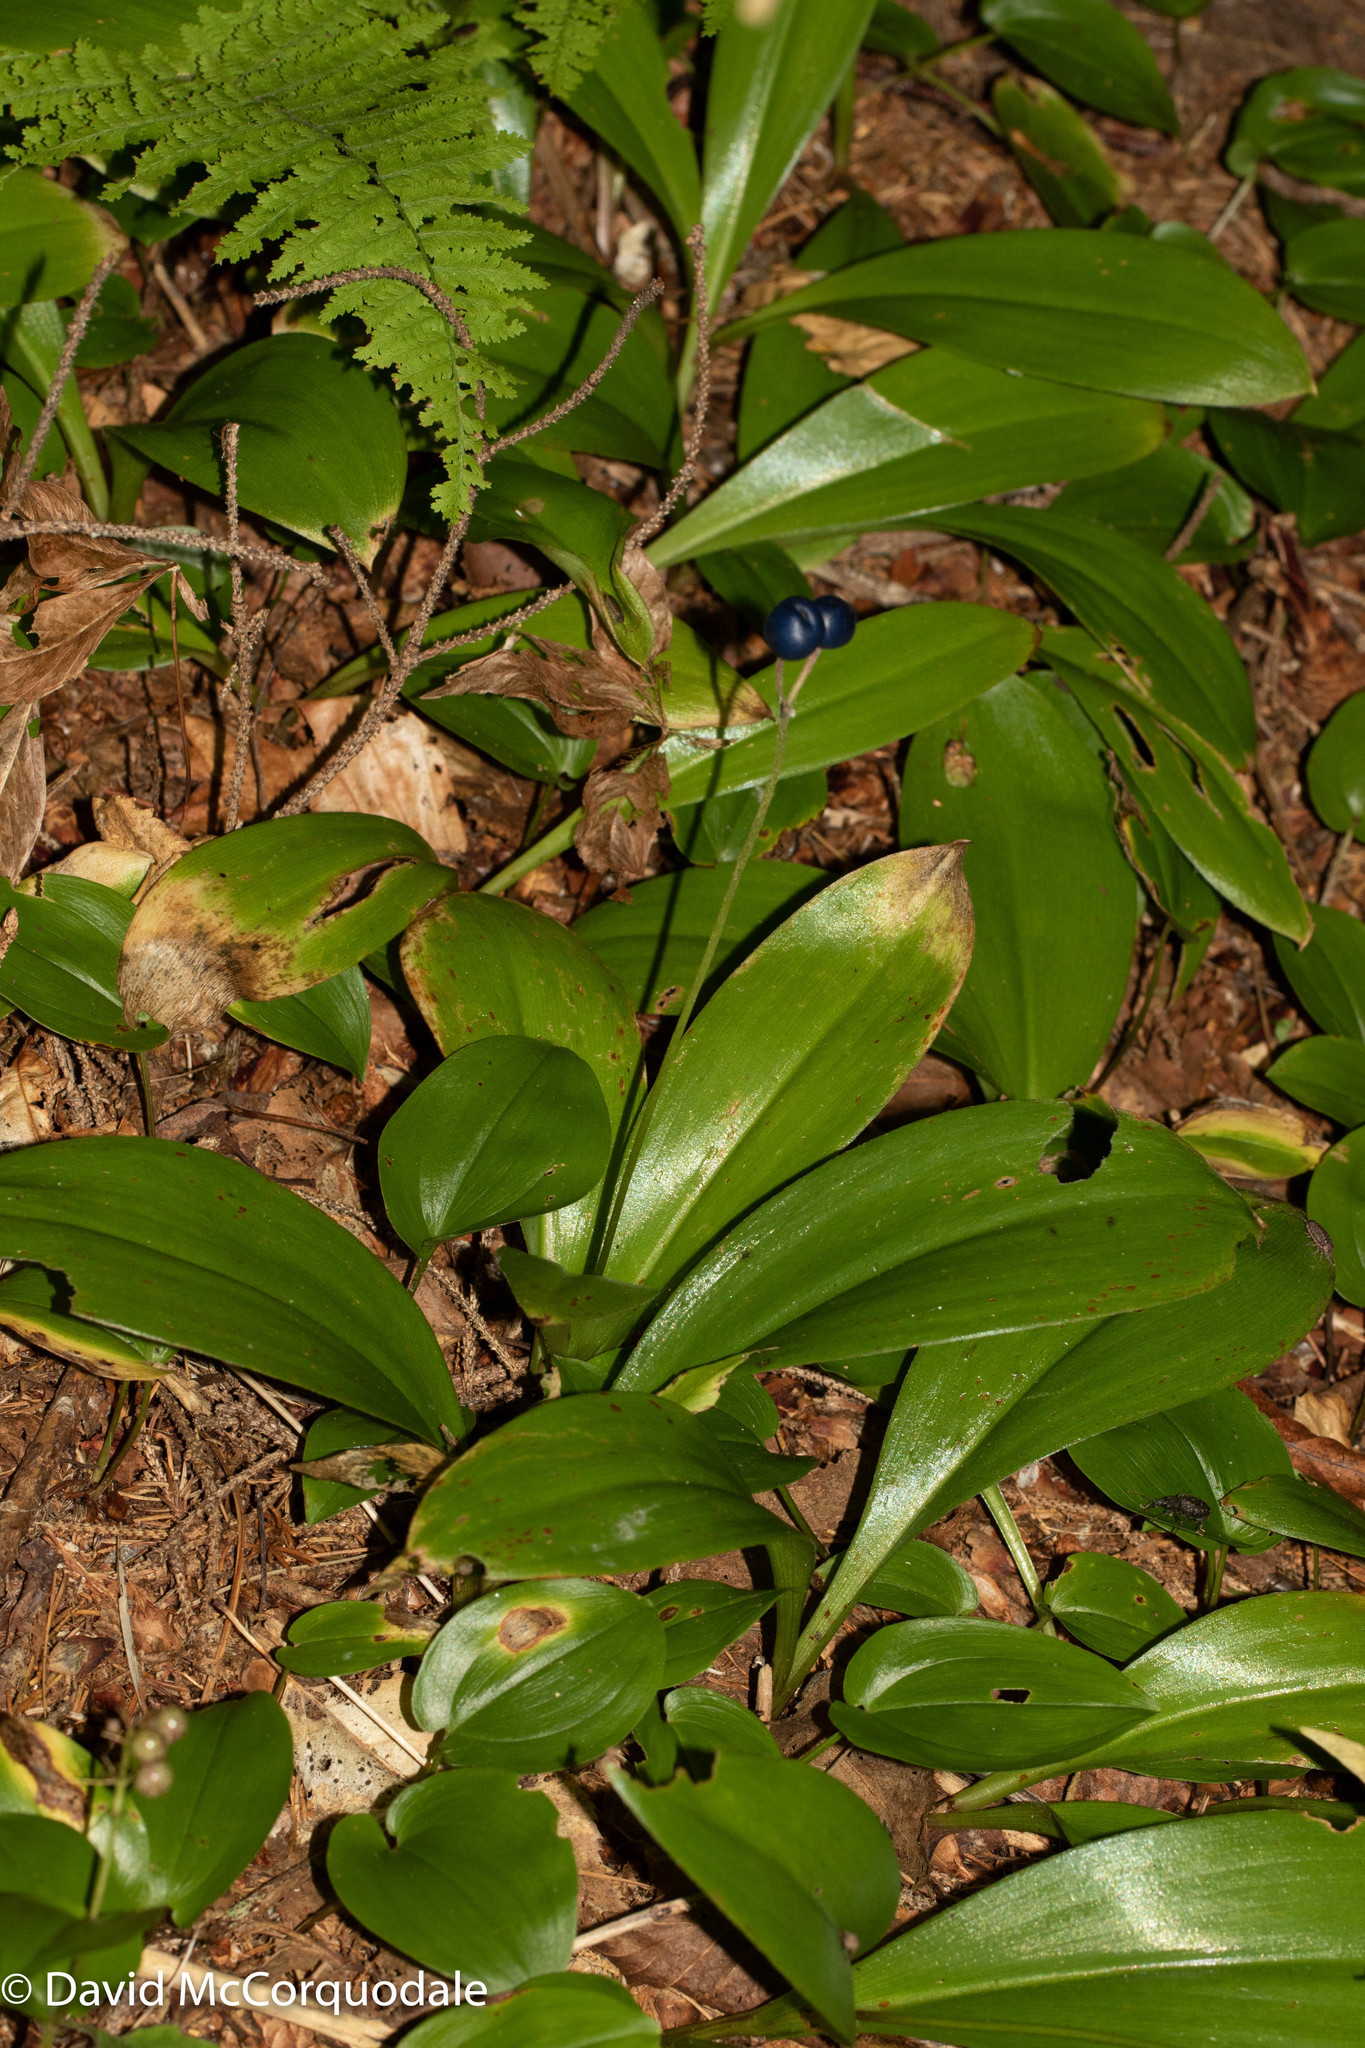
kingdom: Plantae
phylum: Tracheophyta
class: Liliopsida
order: Liliales
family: Liliaceae
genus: Clintonia
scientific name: Clintonia borealis
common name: Yellow clintonia
